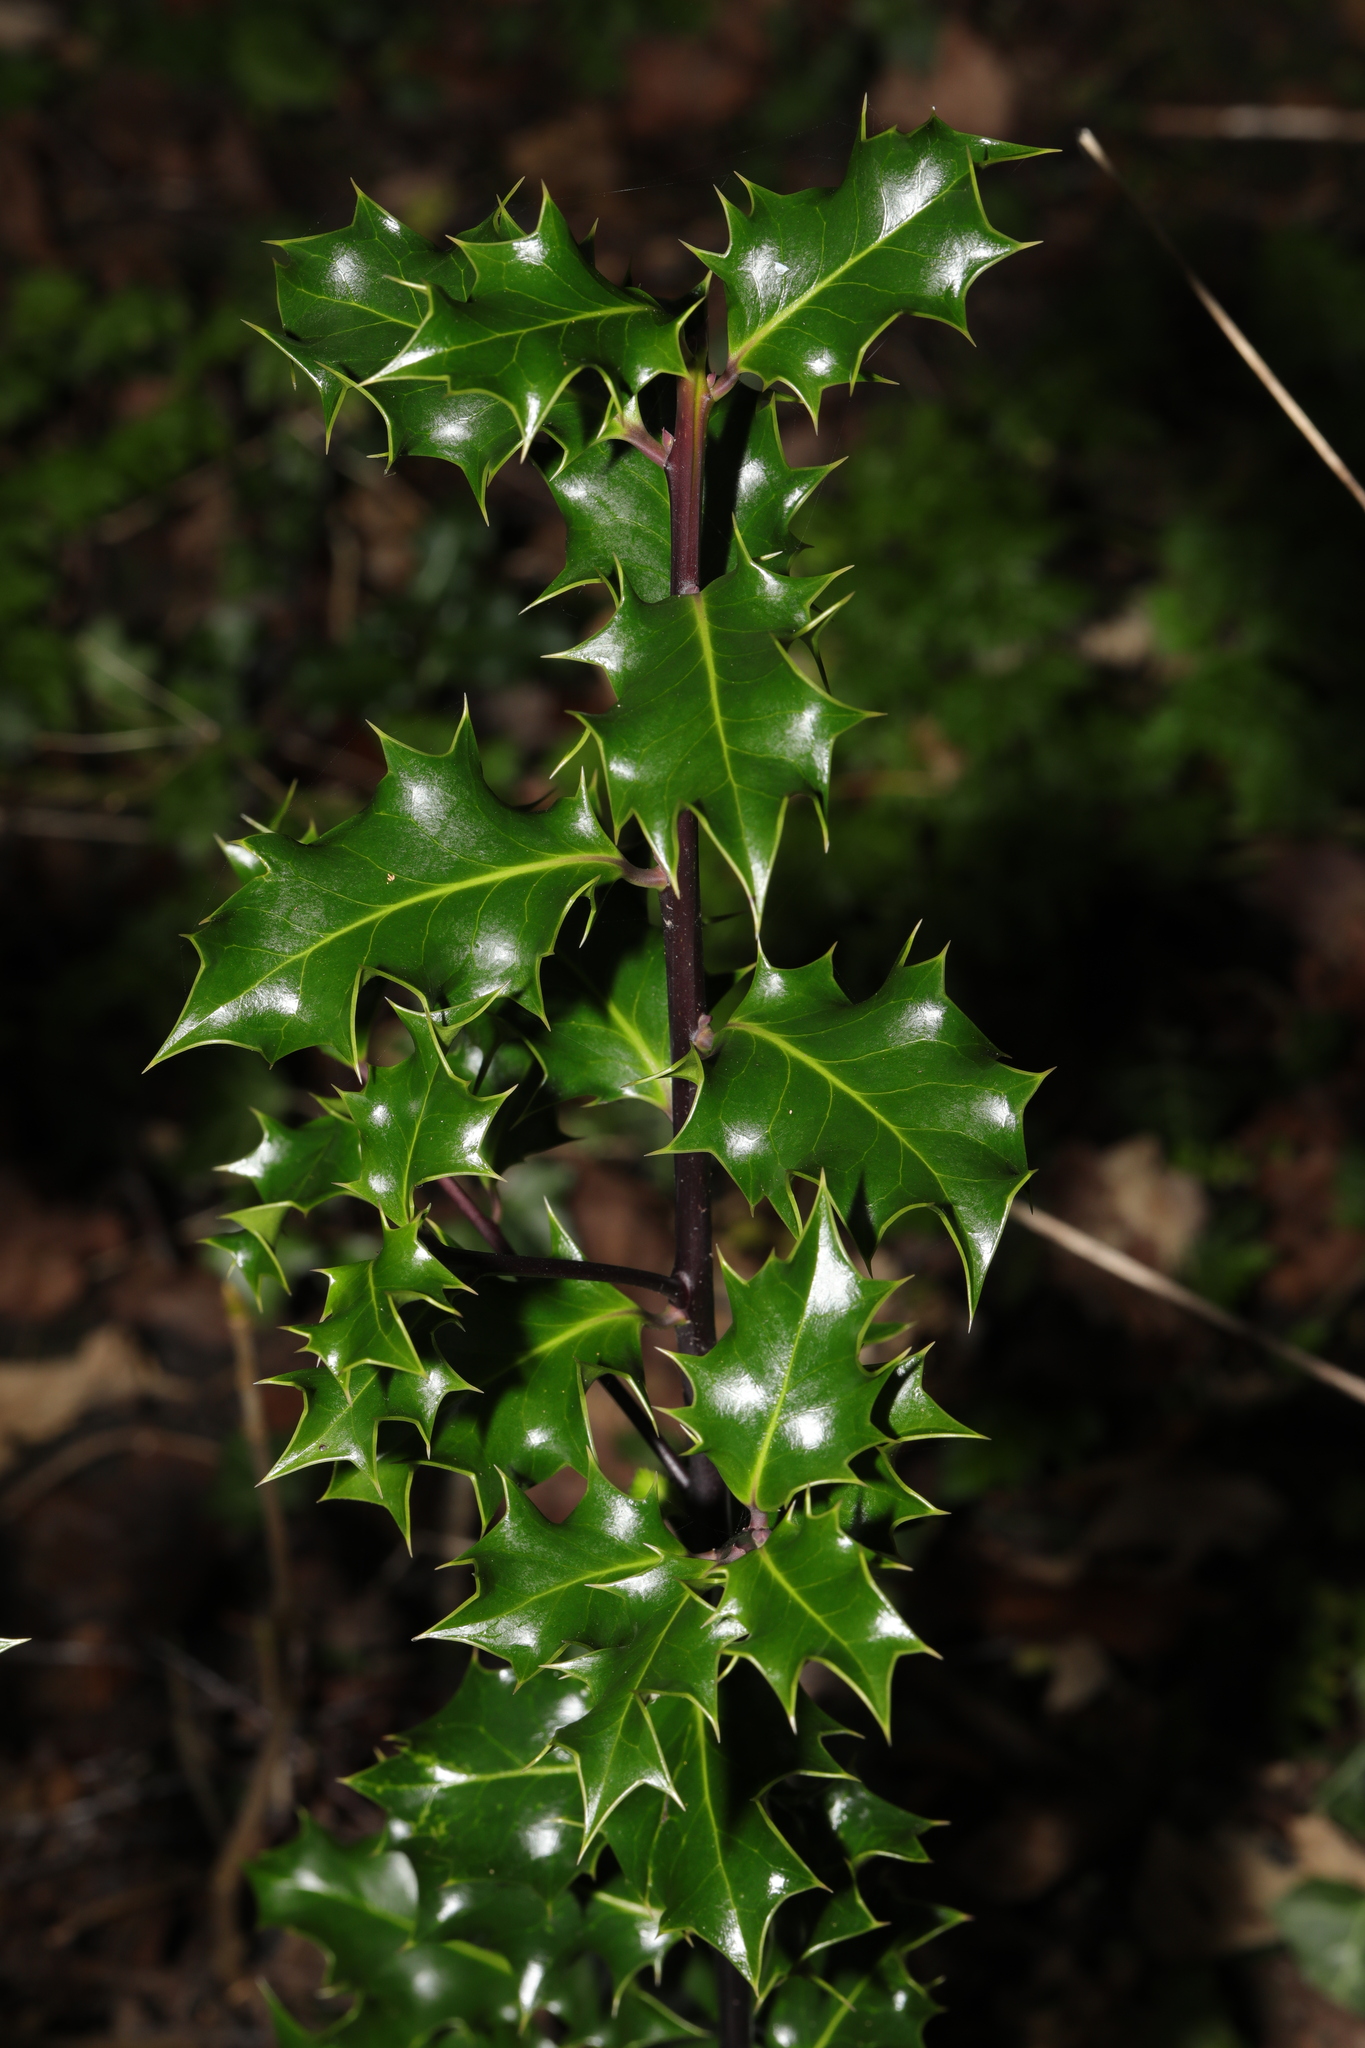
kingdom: Plantae
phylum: Tracheophyta
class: Magnoliopsida
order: Aquifoliales
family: Aquifoliaceae
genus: Ilex
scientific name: Ilex aquifolium
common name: English holly
